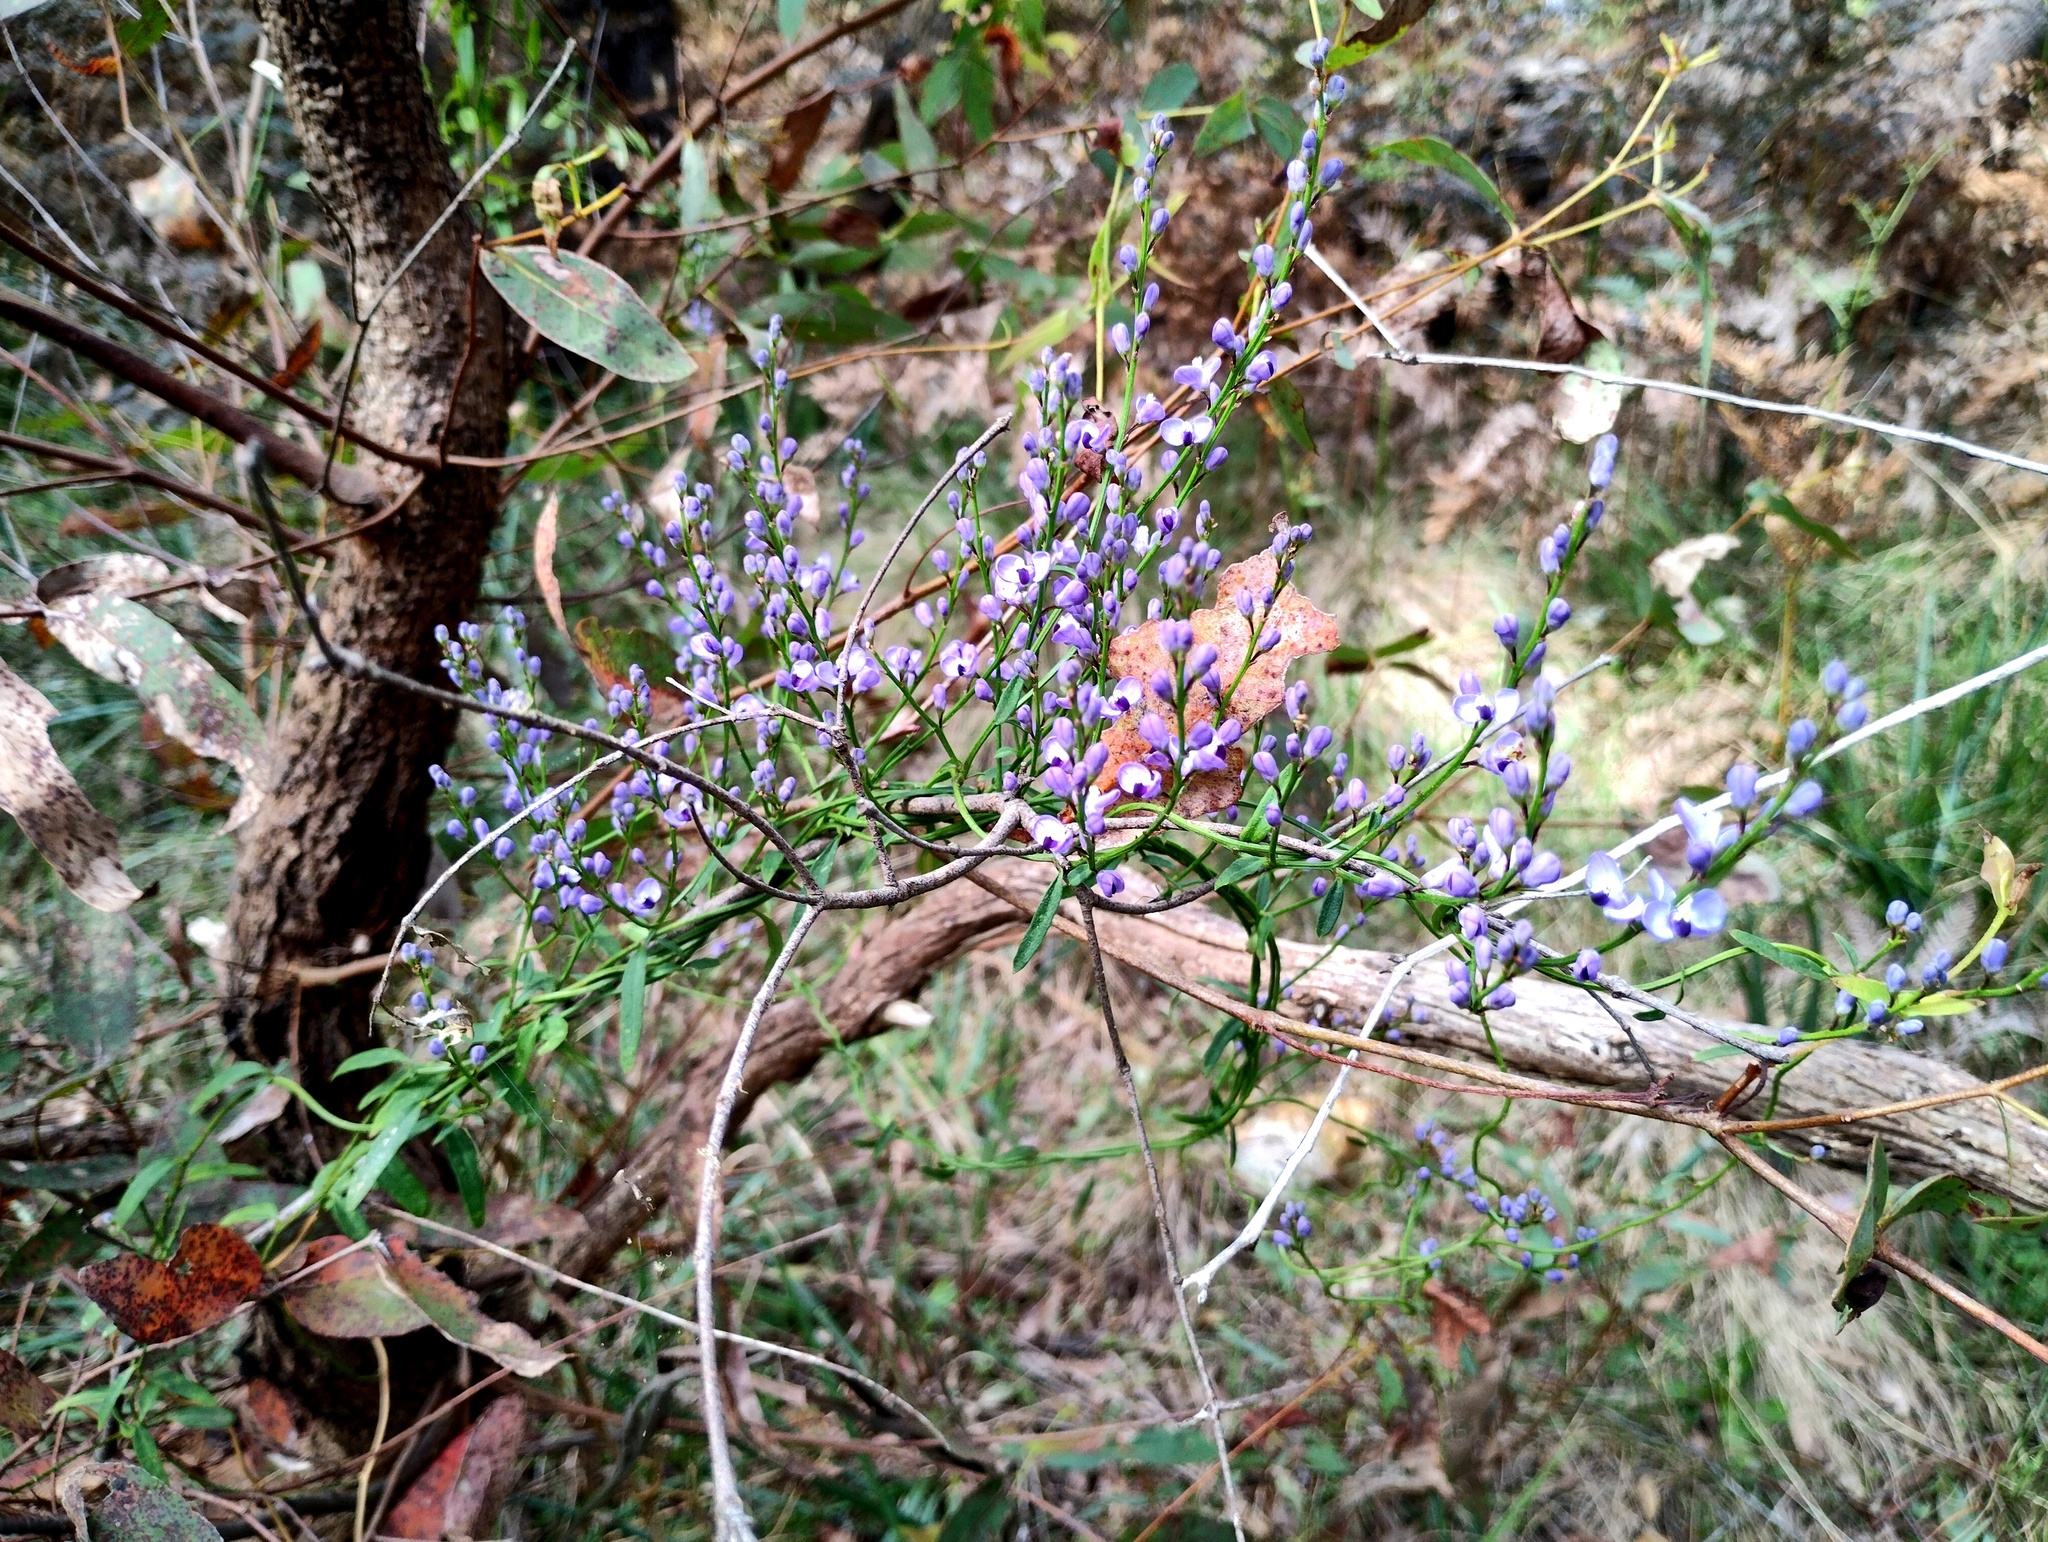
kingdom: Plantae
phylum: Tracheophyta
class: Magnoliopsida
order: Fabales
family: Polygalaceae
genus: Comesperma
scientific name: Comesperma volubile
